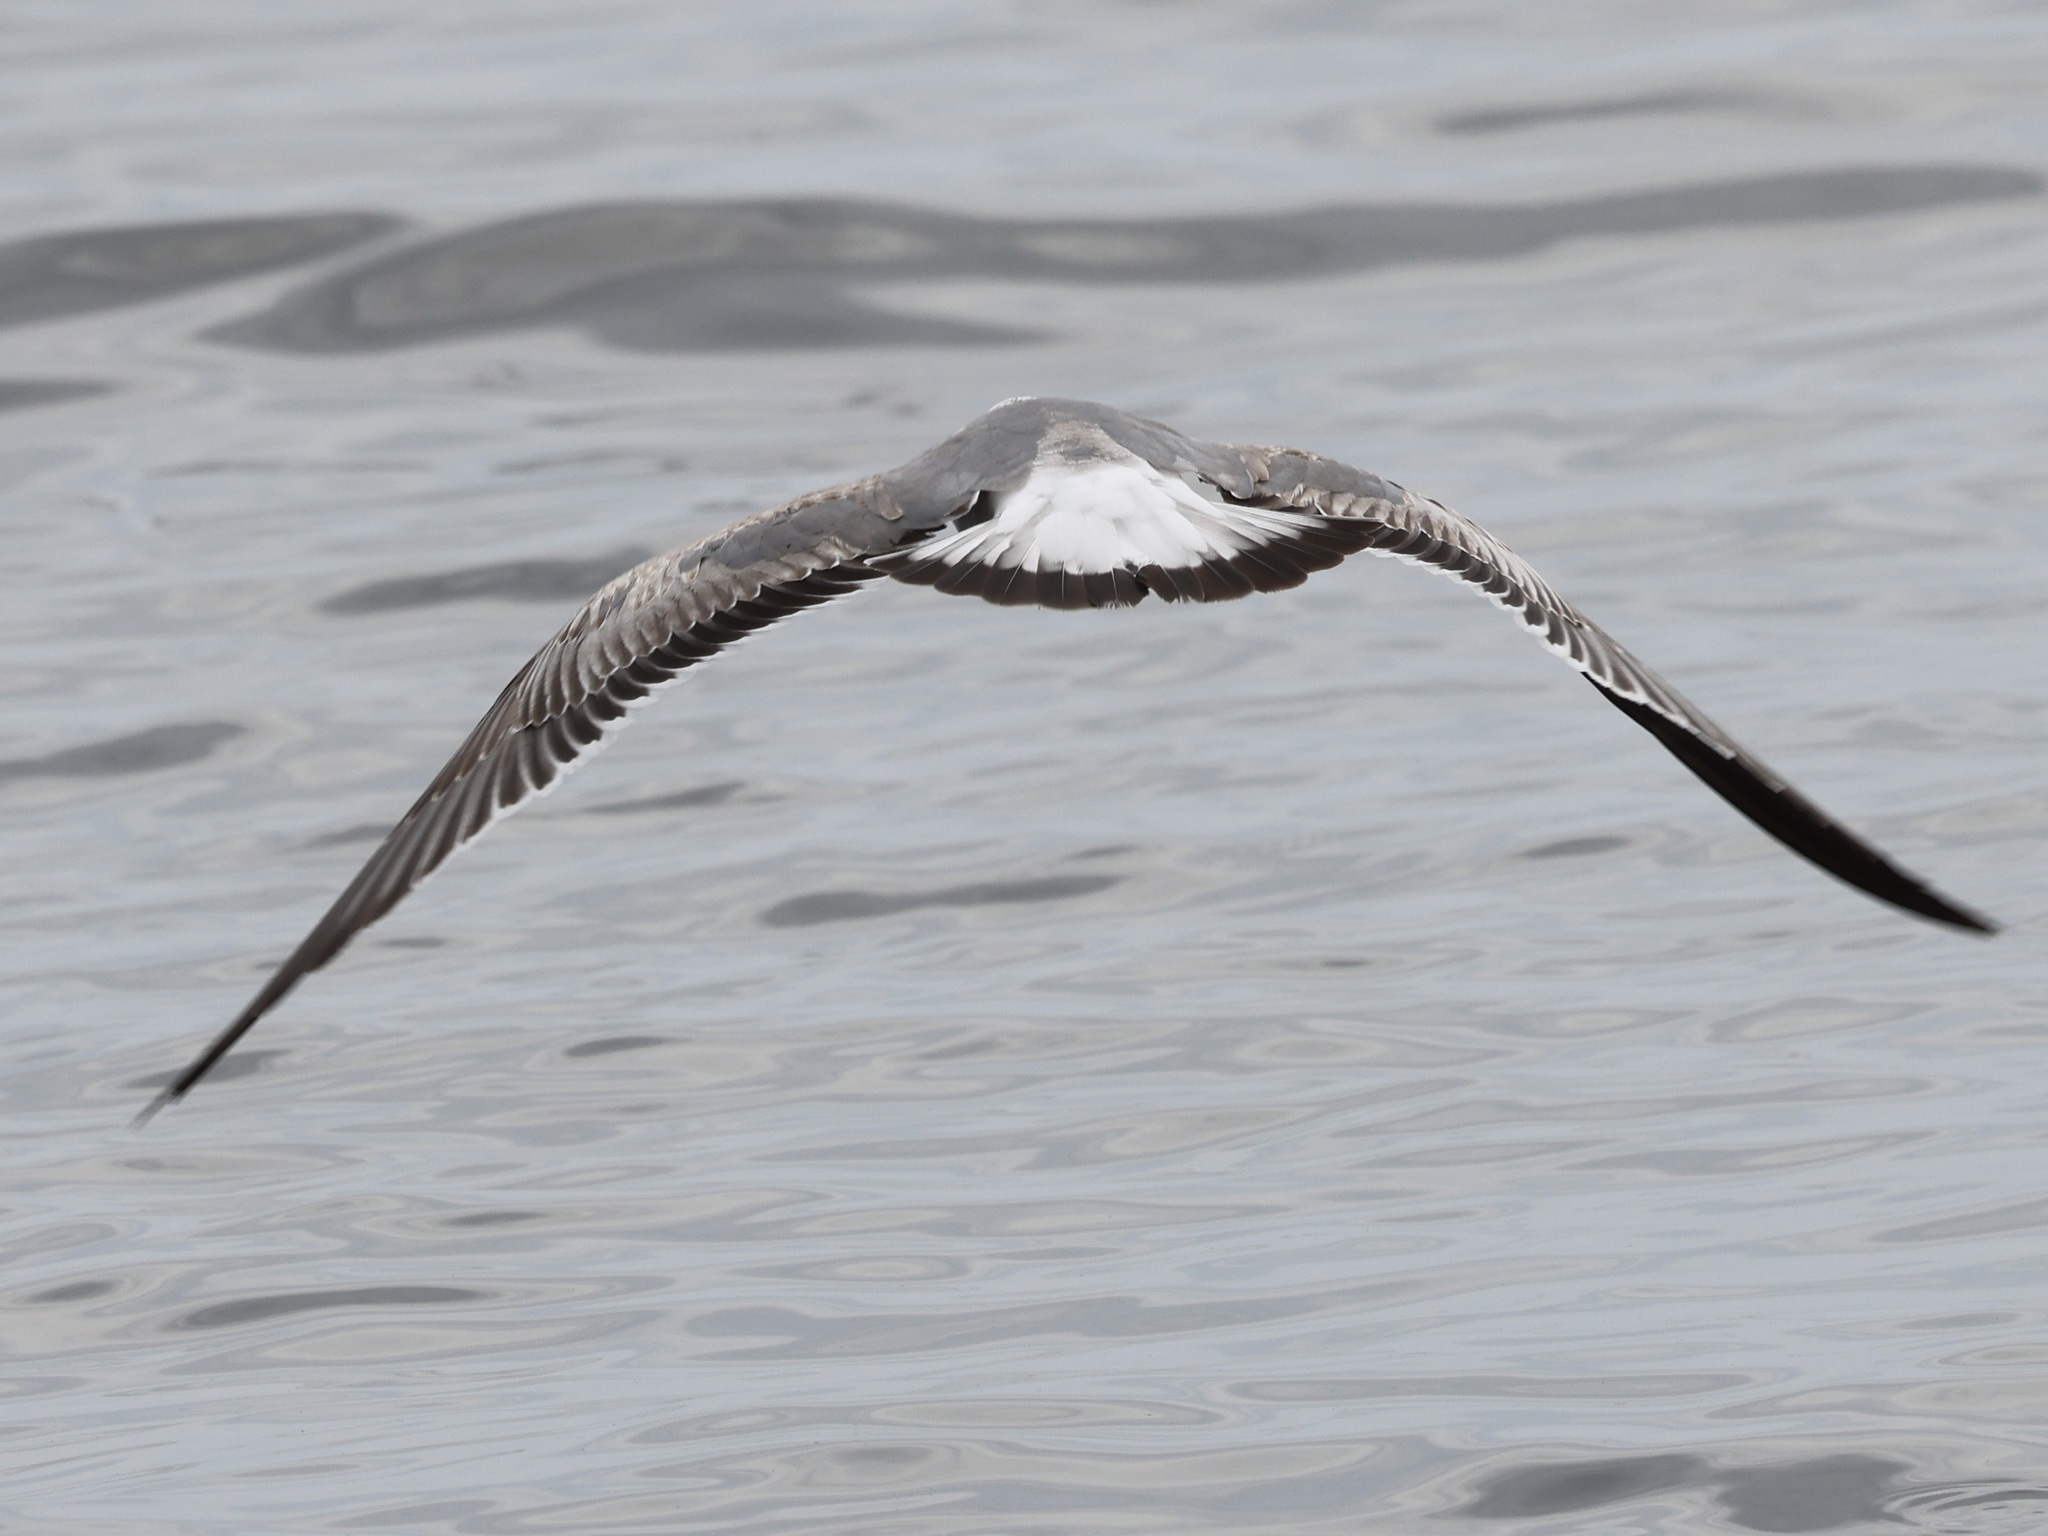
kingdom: Animalia
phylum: Chordata
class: Aves
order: Charadriiformes
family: Laridae
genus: Leucophaeus
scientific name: Leucophaeus atricilla
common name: Laughing gull
